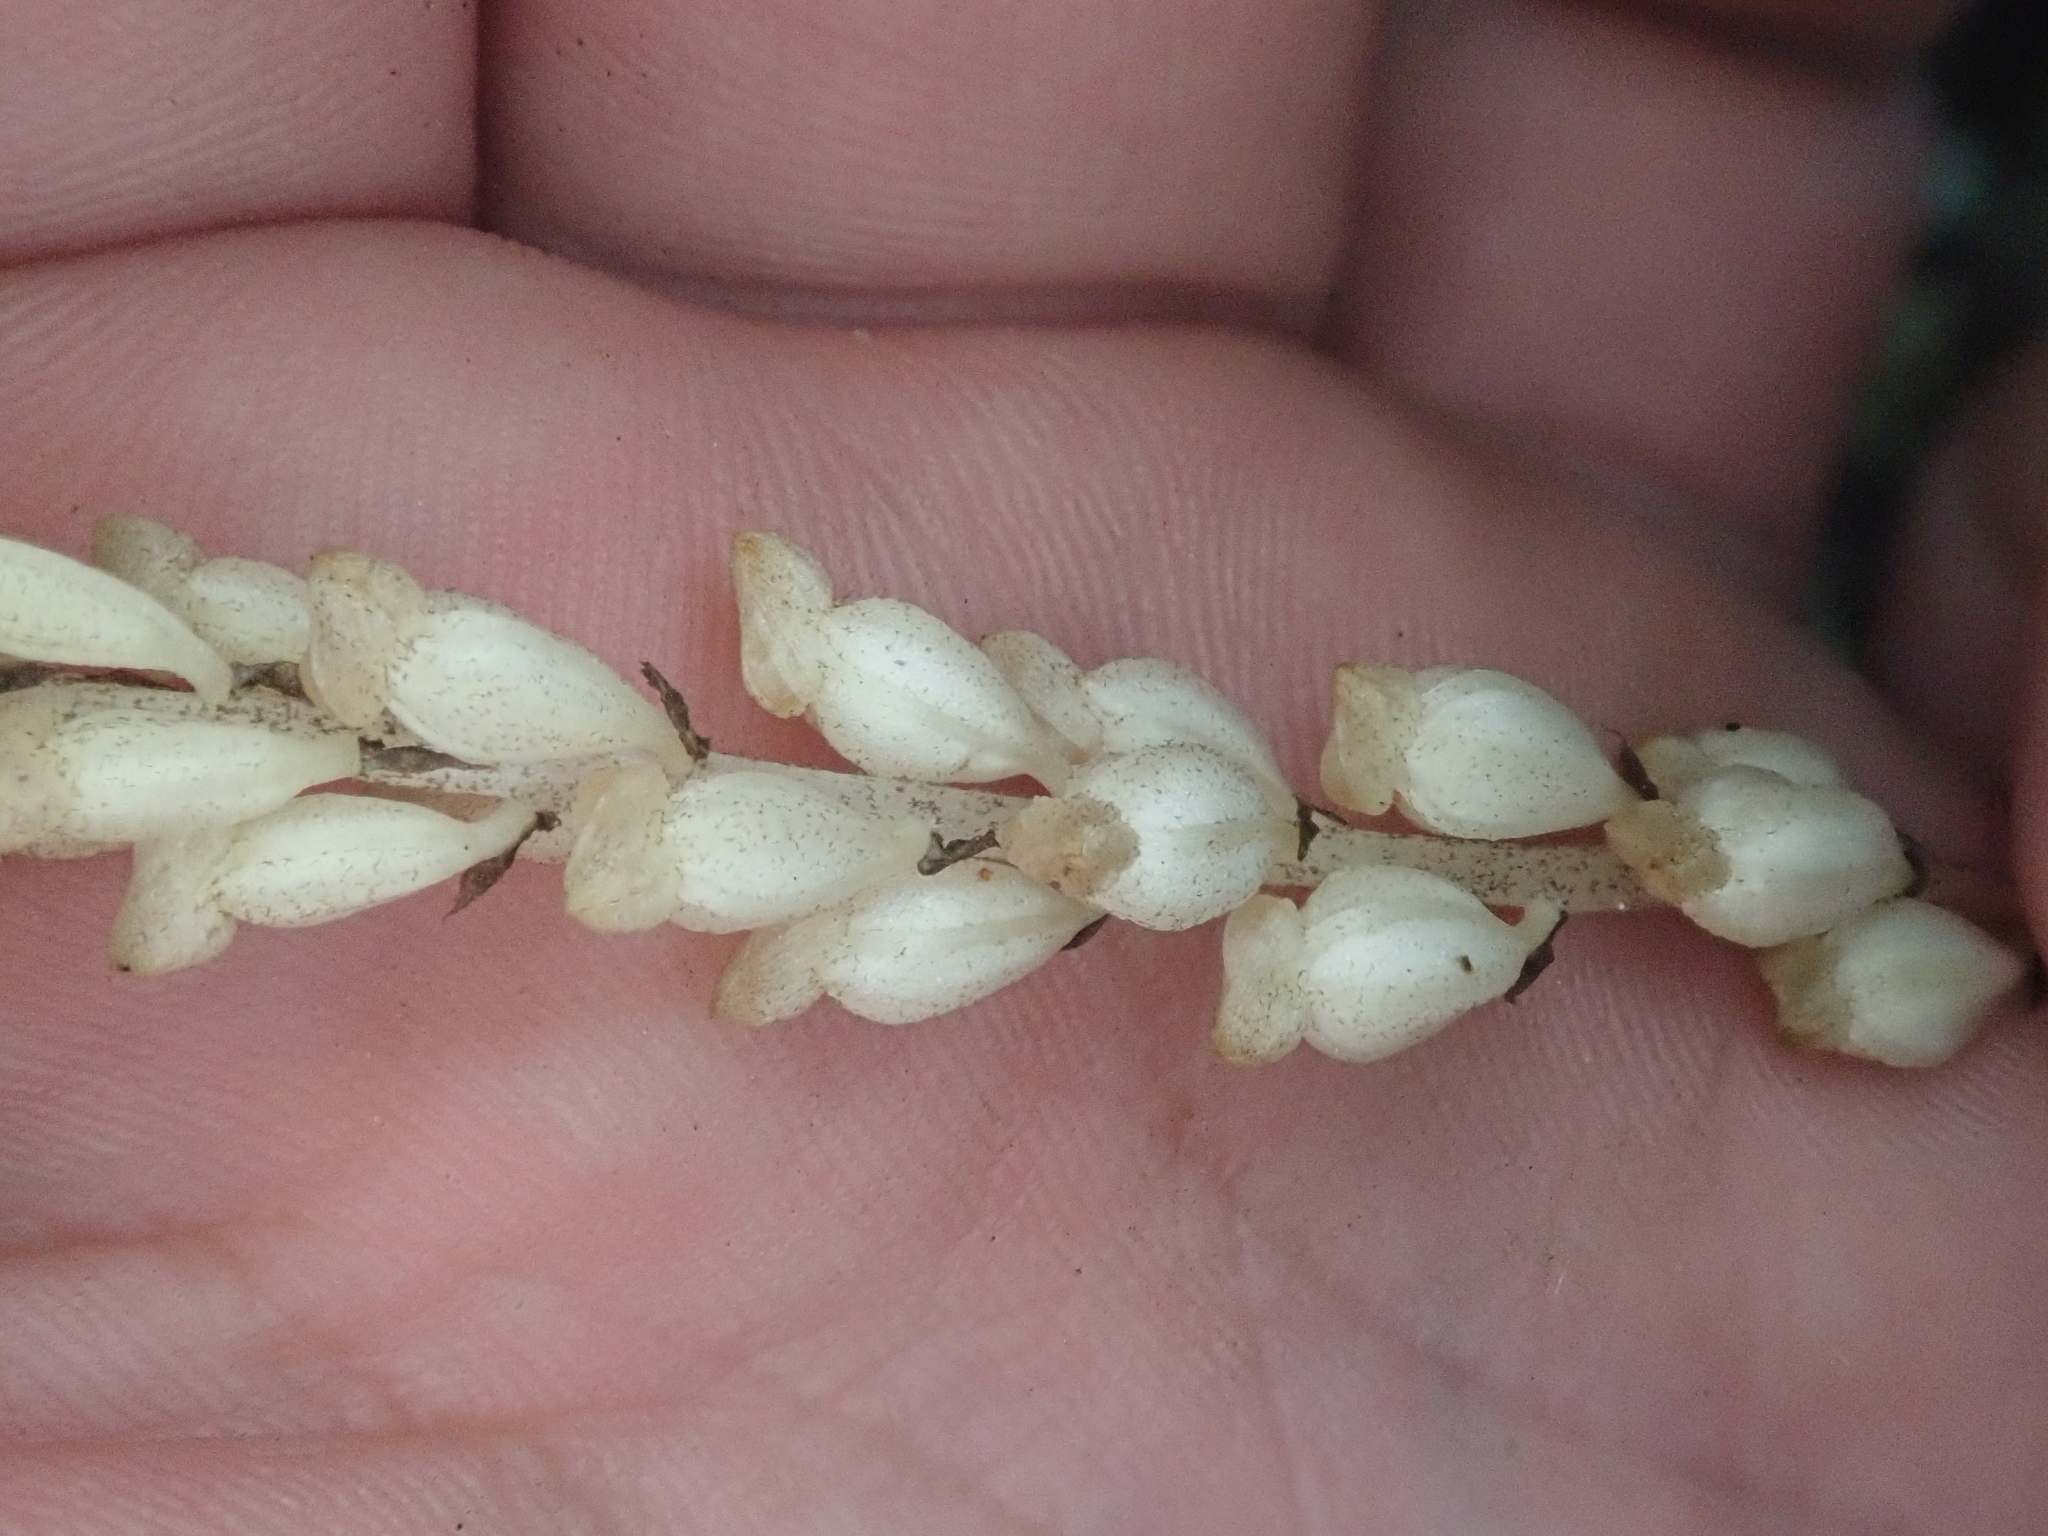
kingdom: Plantae
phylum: Tracheophyta
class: Liliopsida
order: Asparagales
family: Orchidaceae
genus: Wullschlaegelia
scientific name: Wullschlaegelia aphylla
